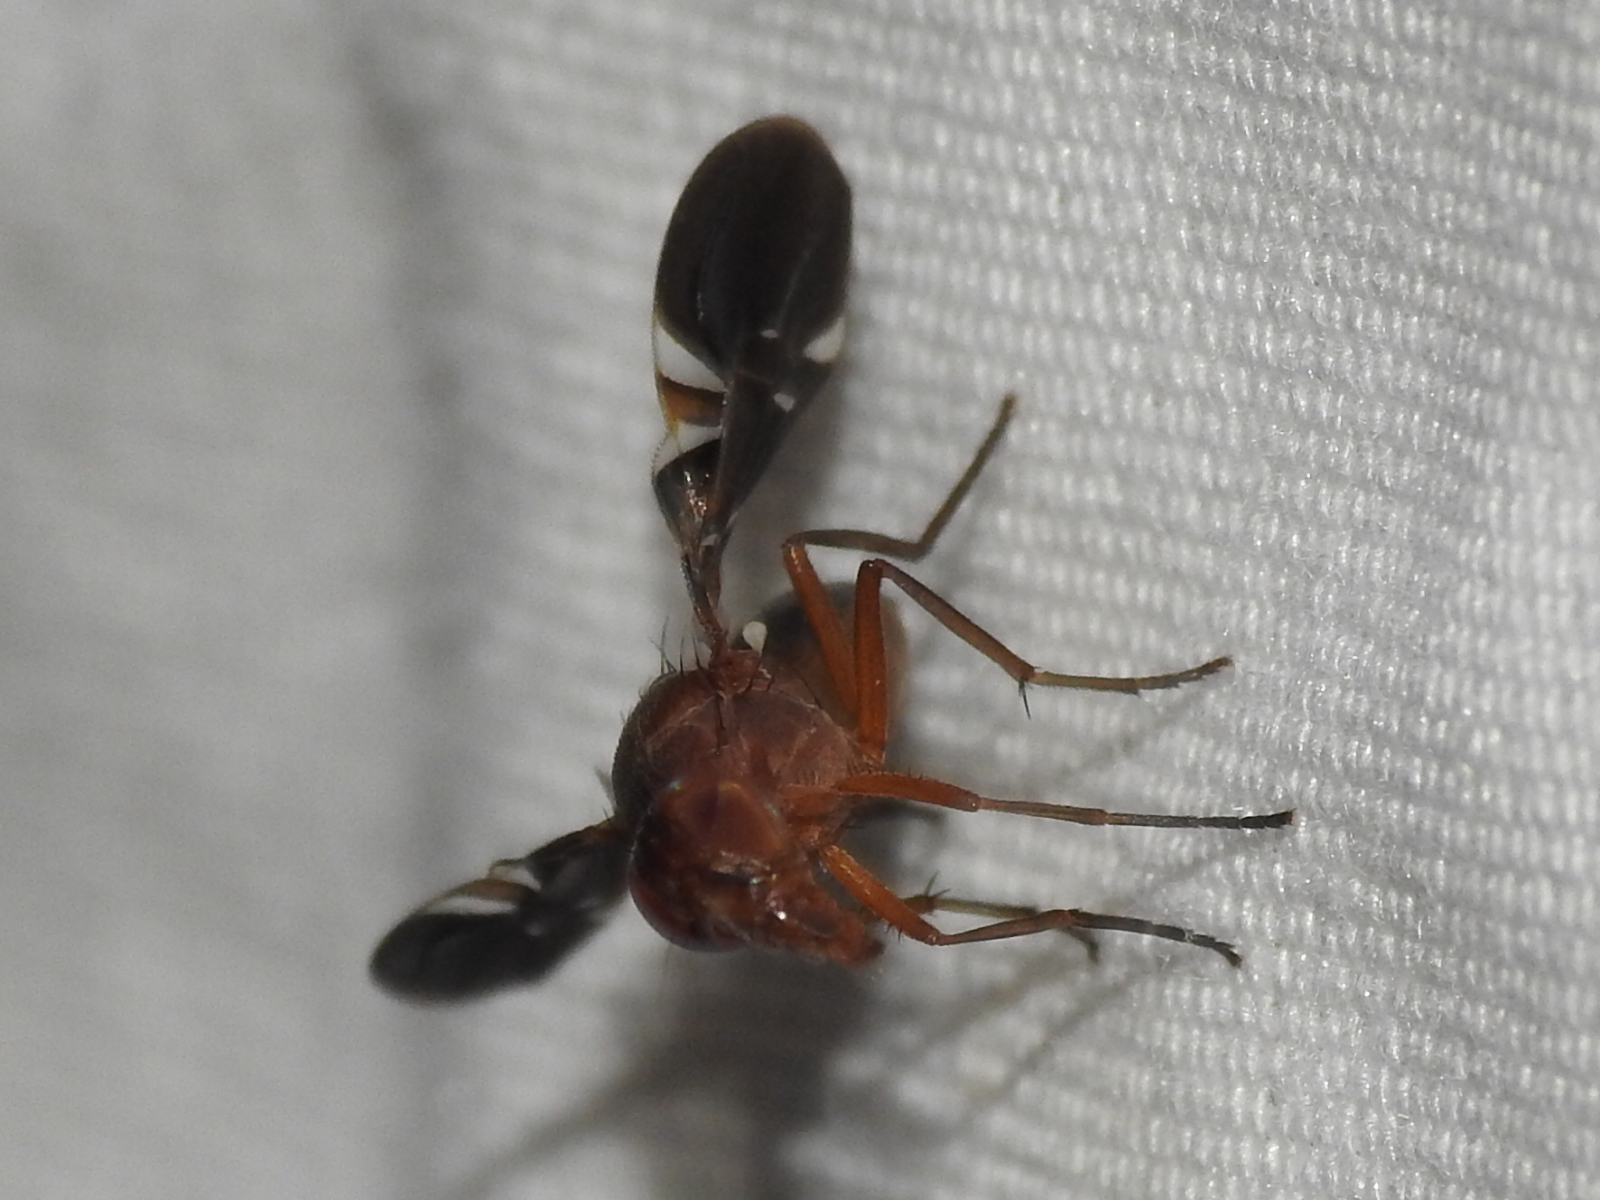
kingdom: Animalia
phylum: Arthropoda
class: Insecta
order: Diptera
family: Ulidiidae
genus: Delphinia
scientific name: Delphinia picta
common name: Common picture-winged fly
